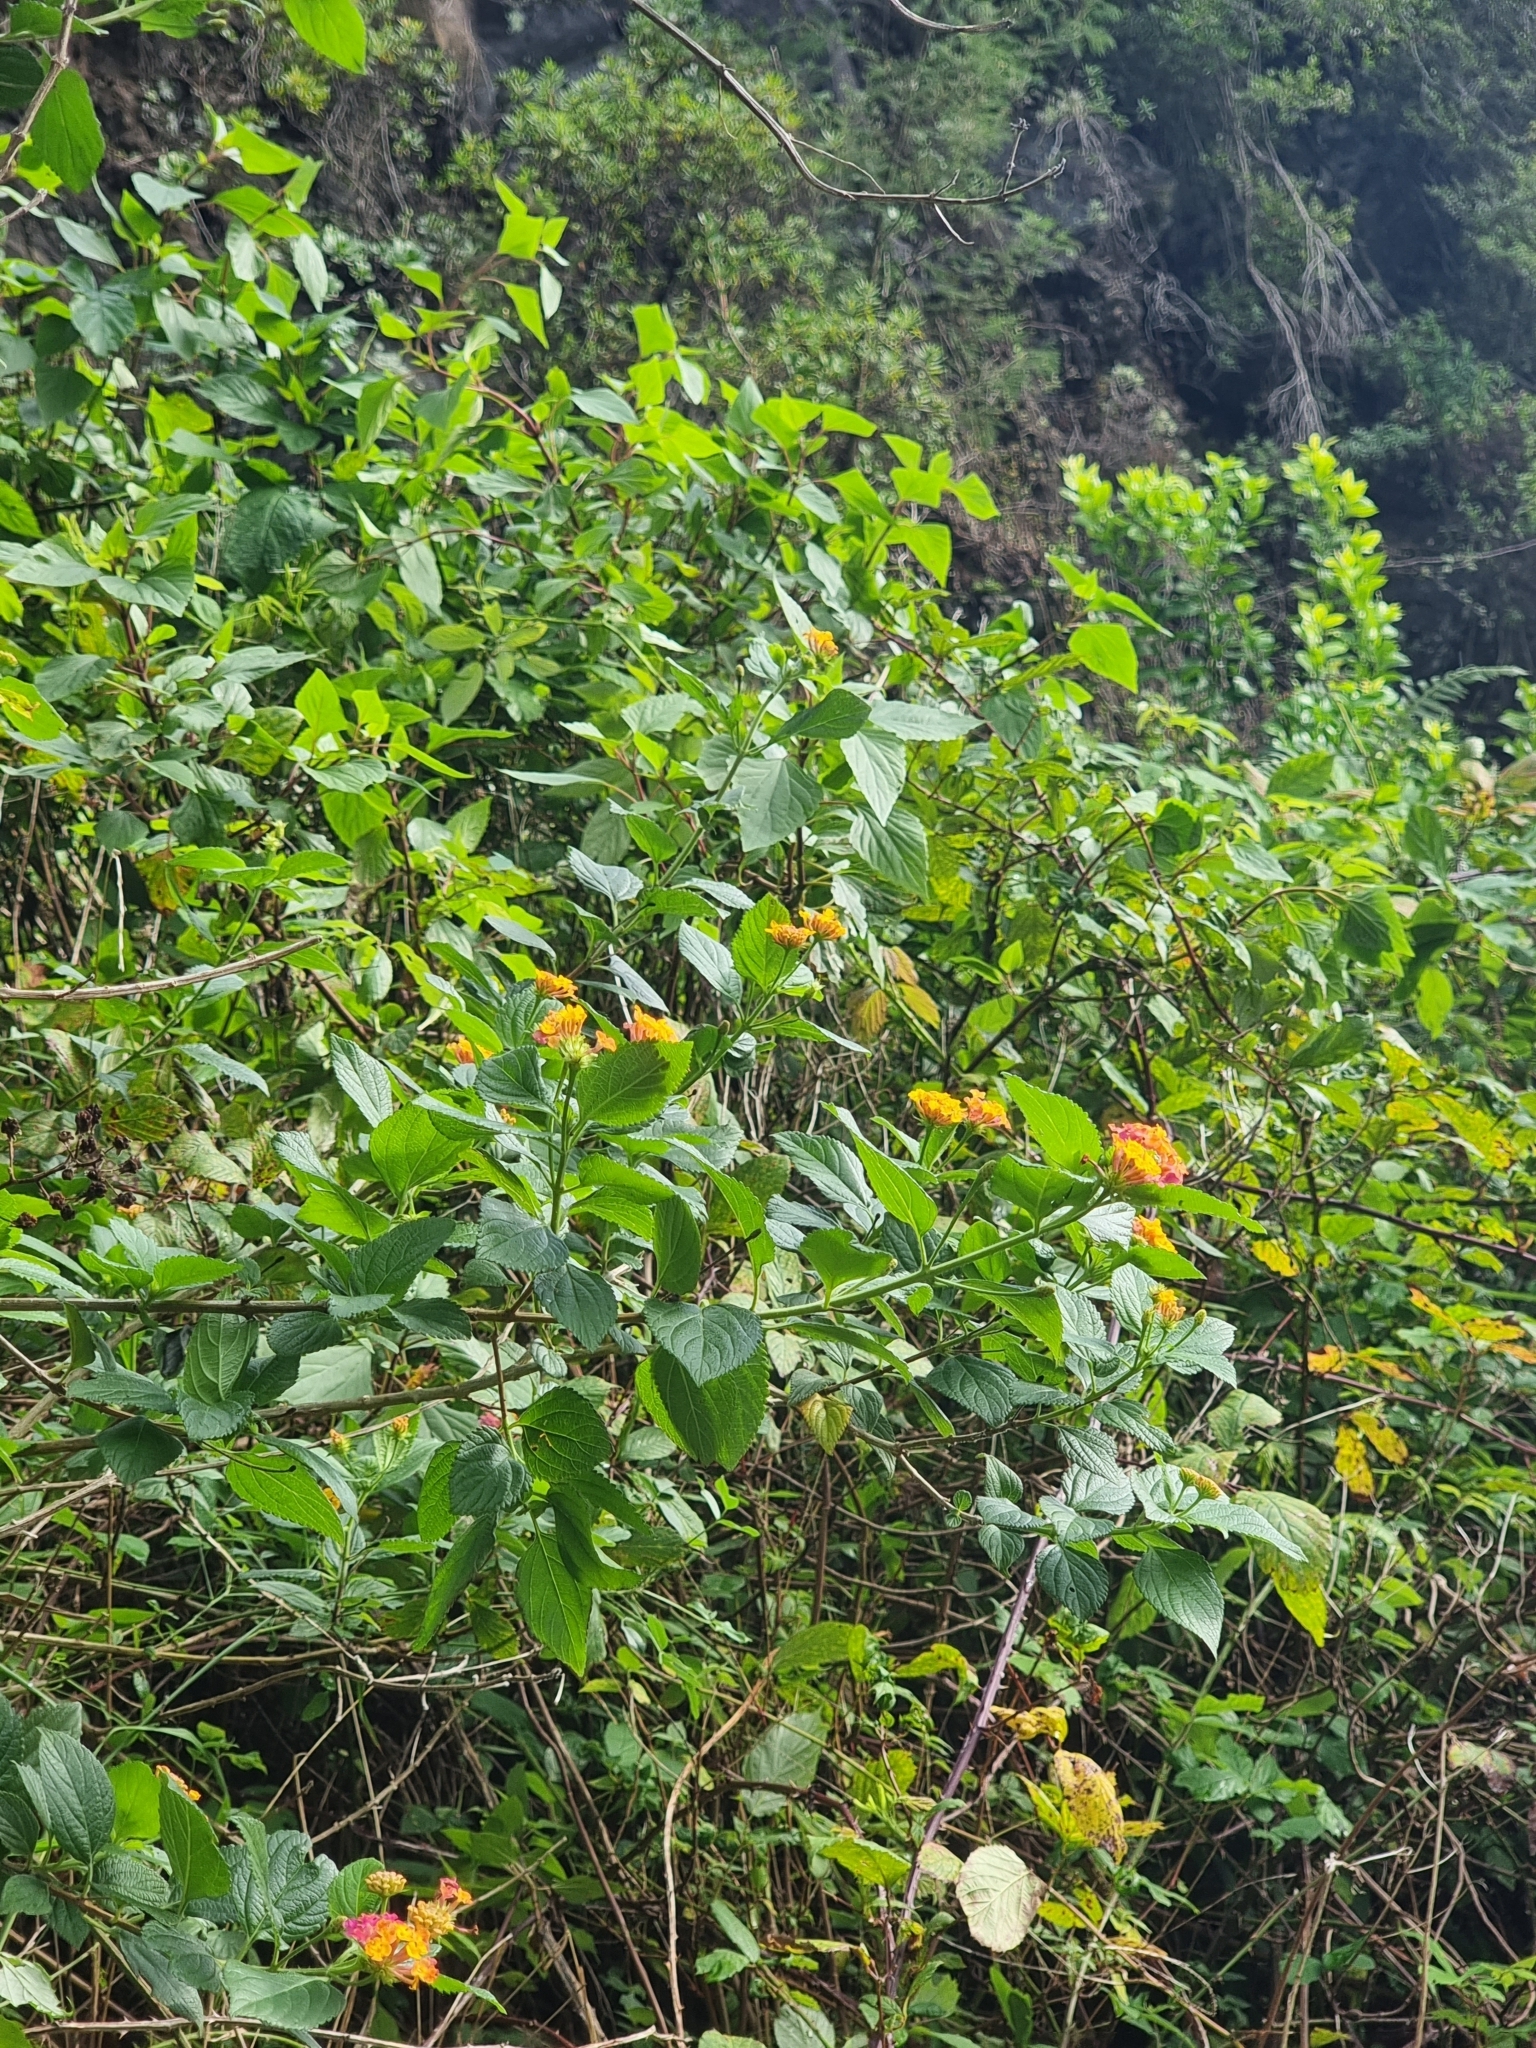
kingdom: Plantae
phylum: Tracheophyta
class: Magnoliopsida
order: Lamiales
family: Verbenaceae
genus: Lantana
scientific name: Lantana camara
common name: Lantana
